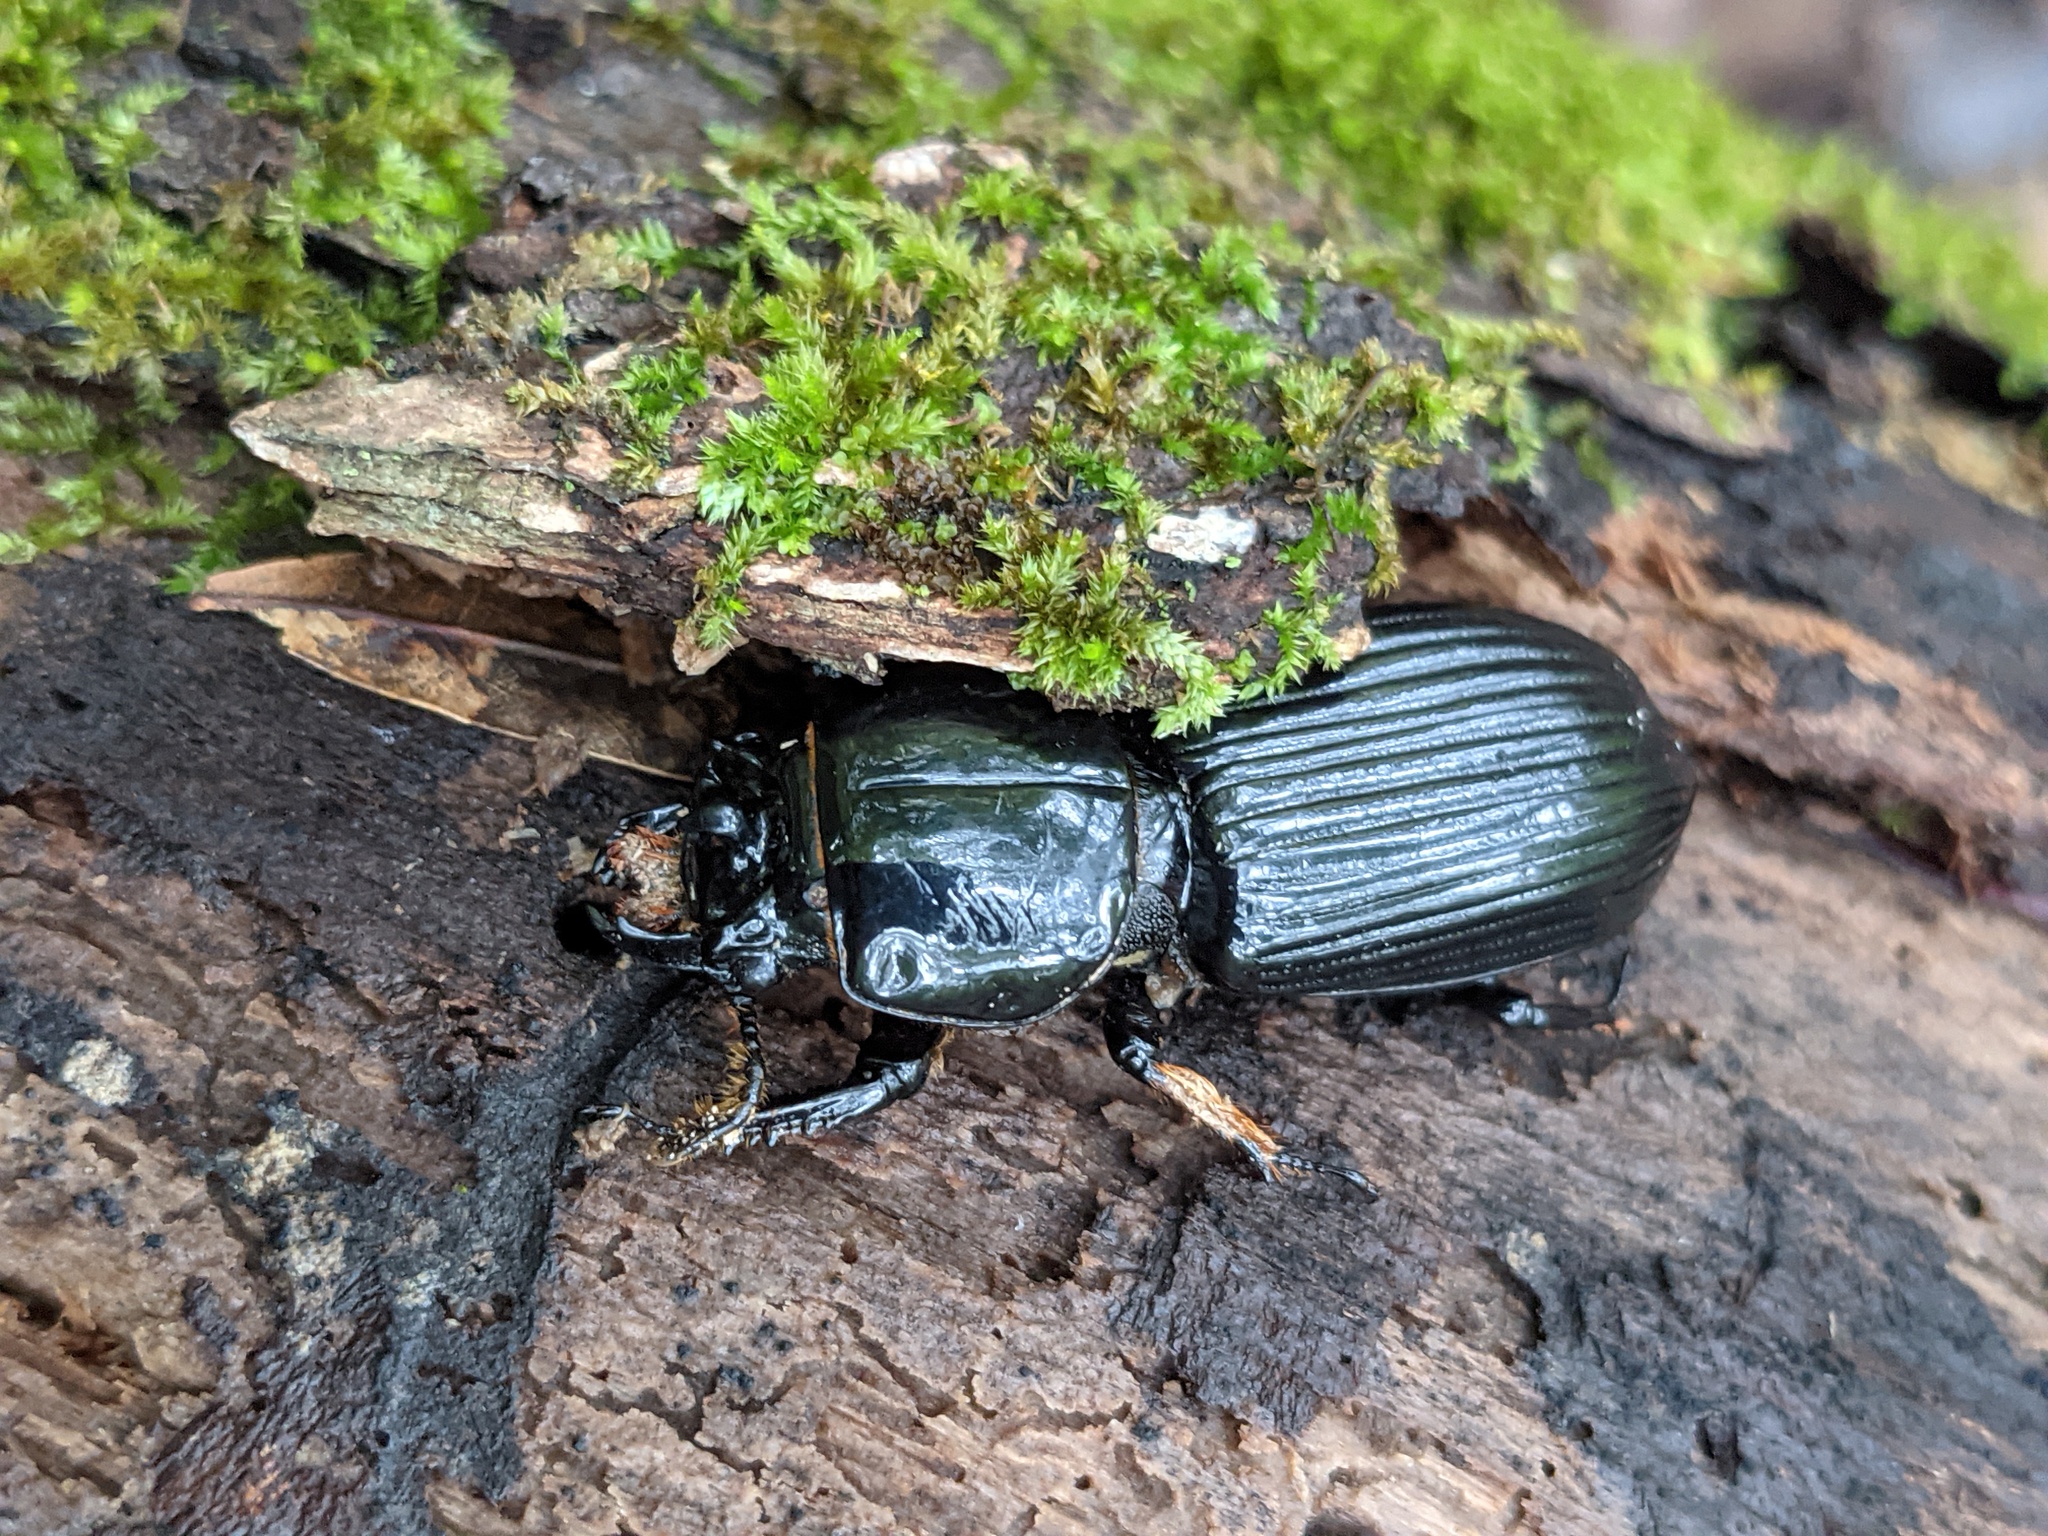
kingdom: Animalia
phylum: Arthropoda
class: Insecta
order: Coleoptera
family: Passalidae
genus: Odontotaenius
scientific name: Odontotaenius disjunctus
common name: Patent leather beetle
